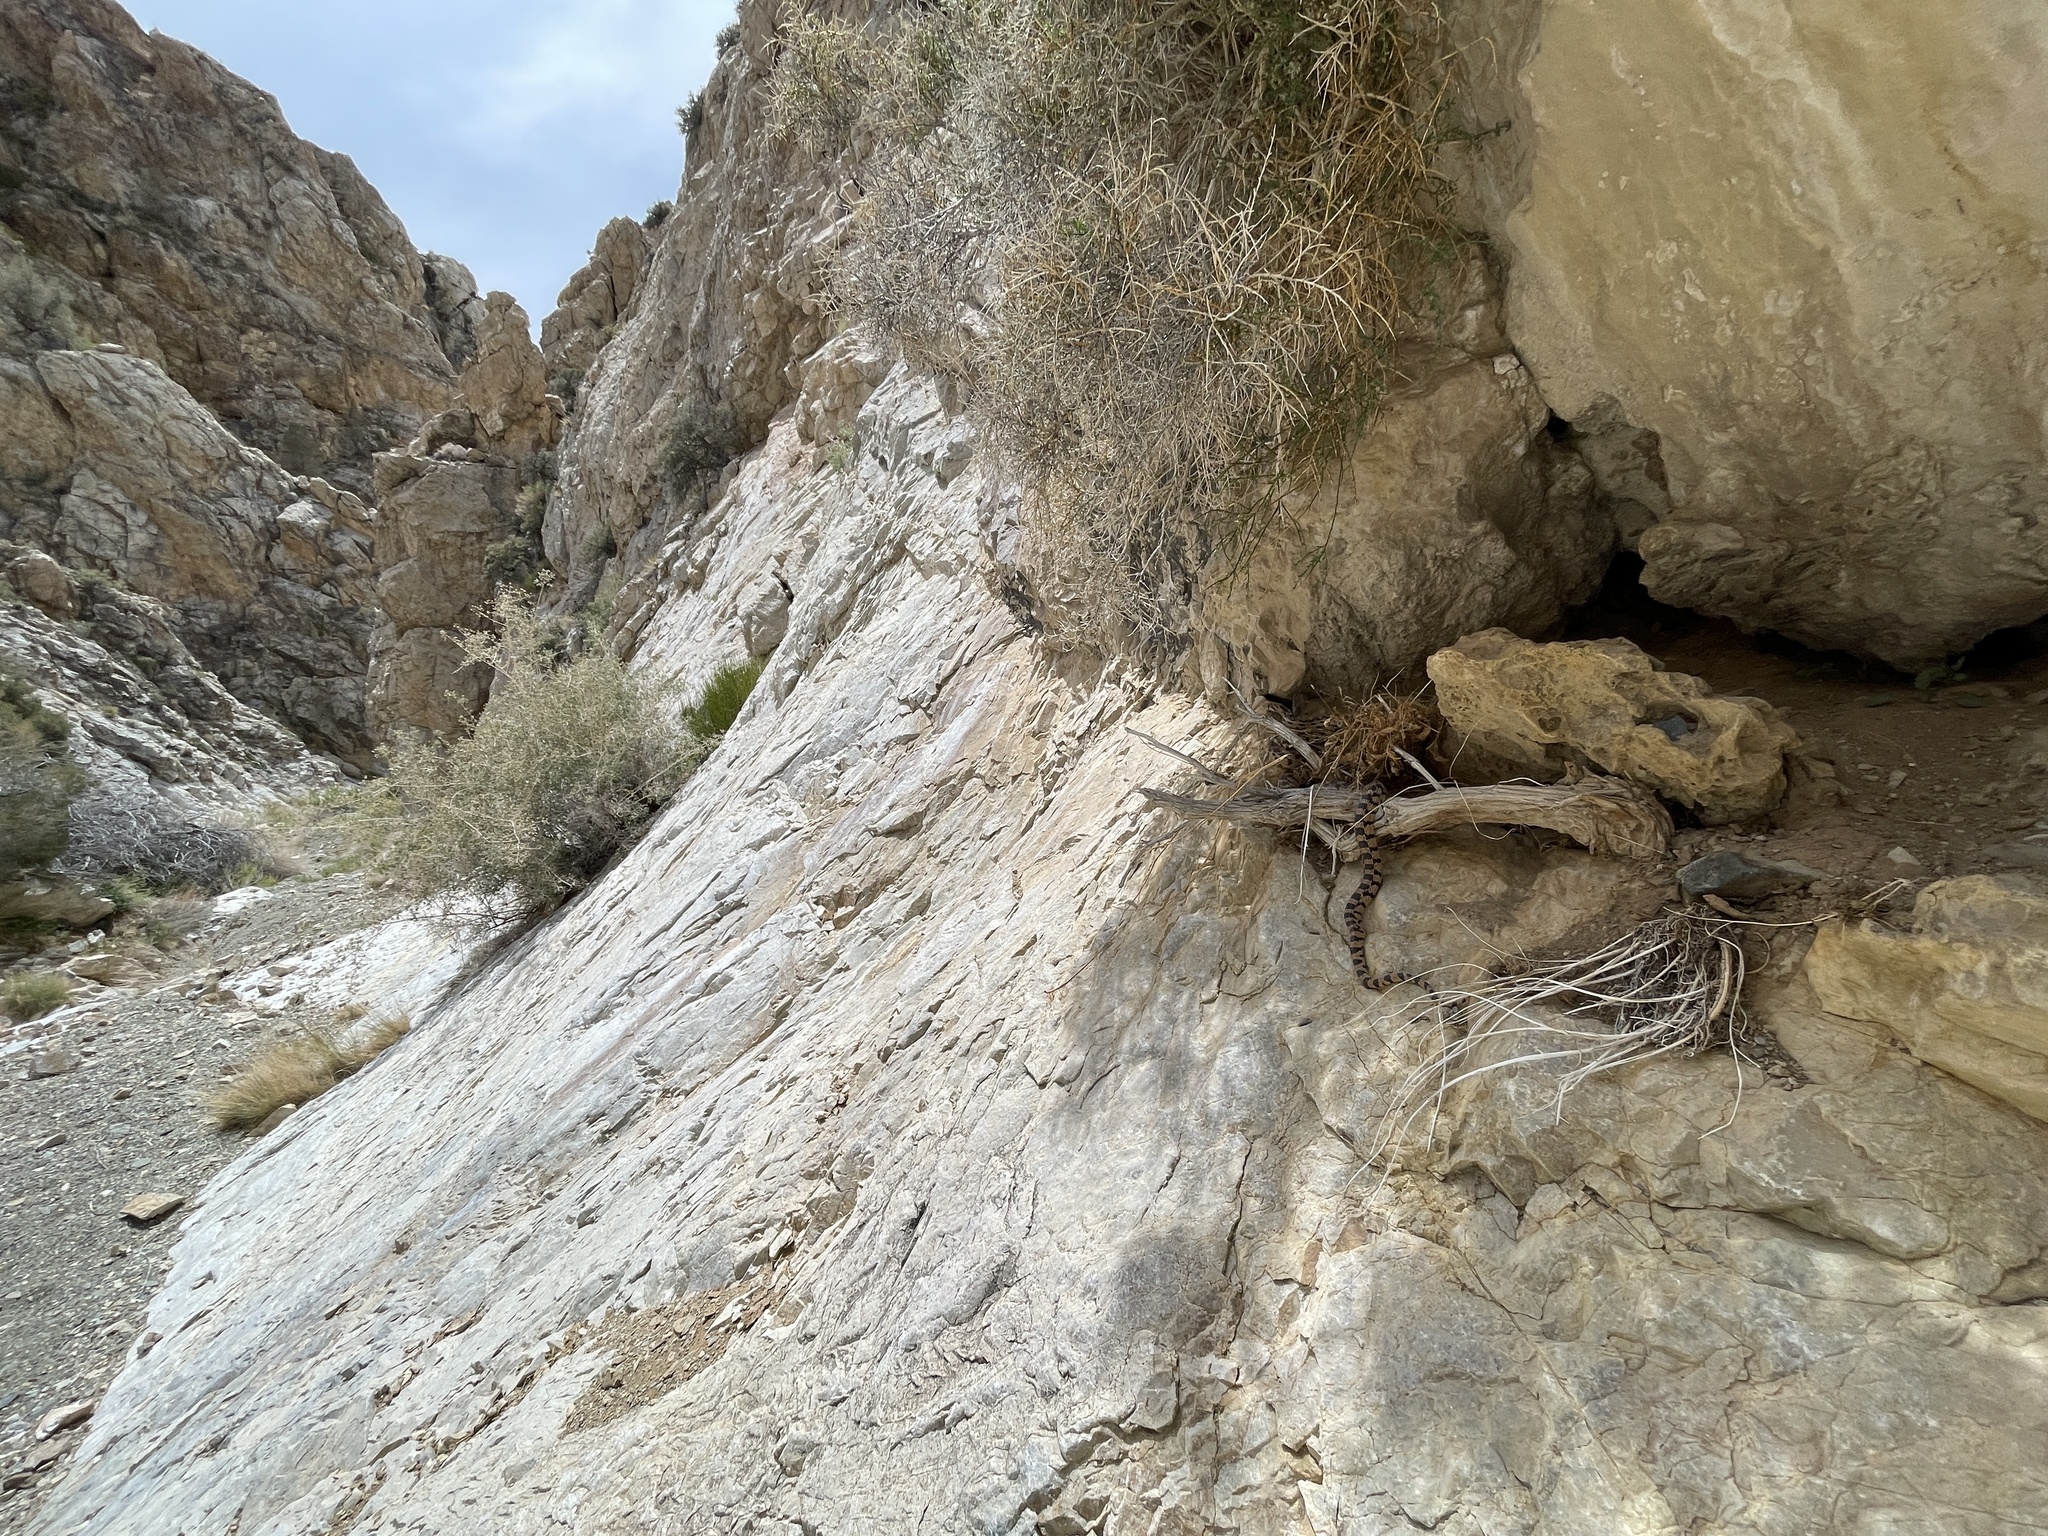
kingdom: Animalia
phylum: Chordata
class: Squamata
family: Colubridae
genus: Pituophis
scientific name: Pituophis catenifer
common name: Gopher snake
